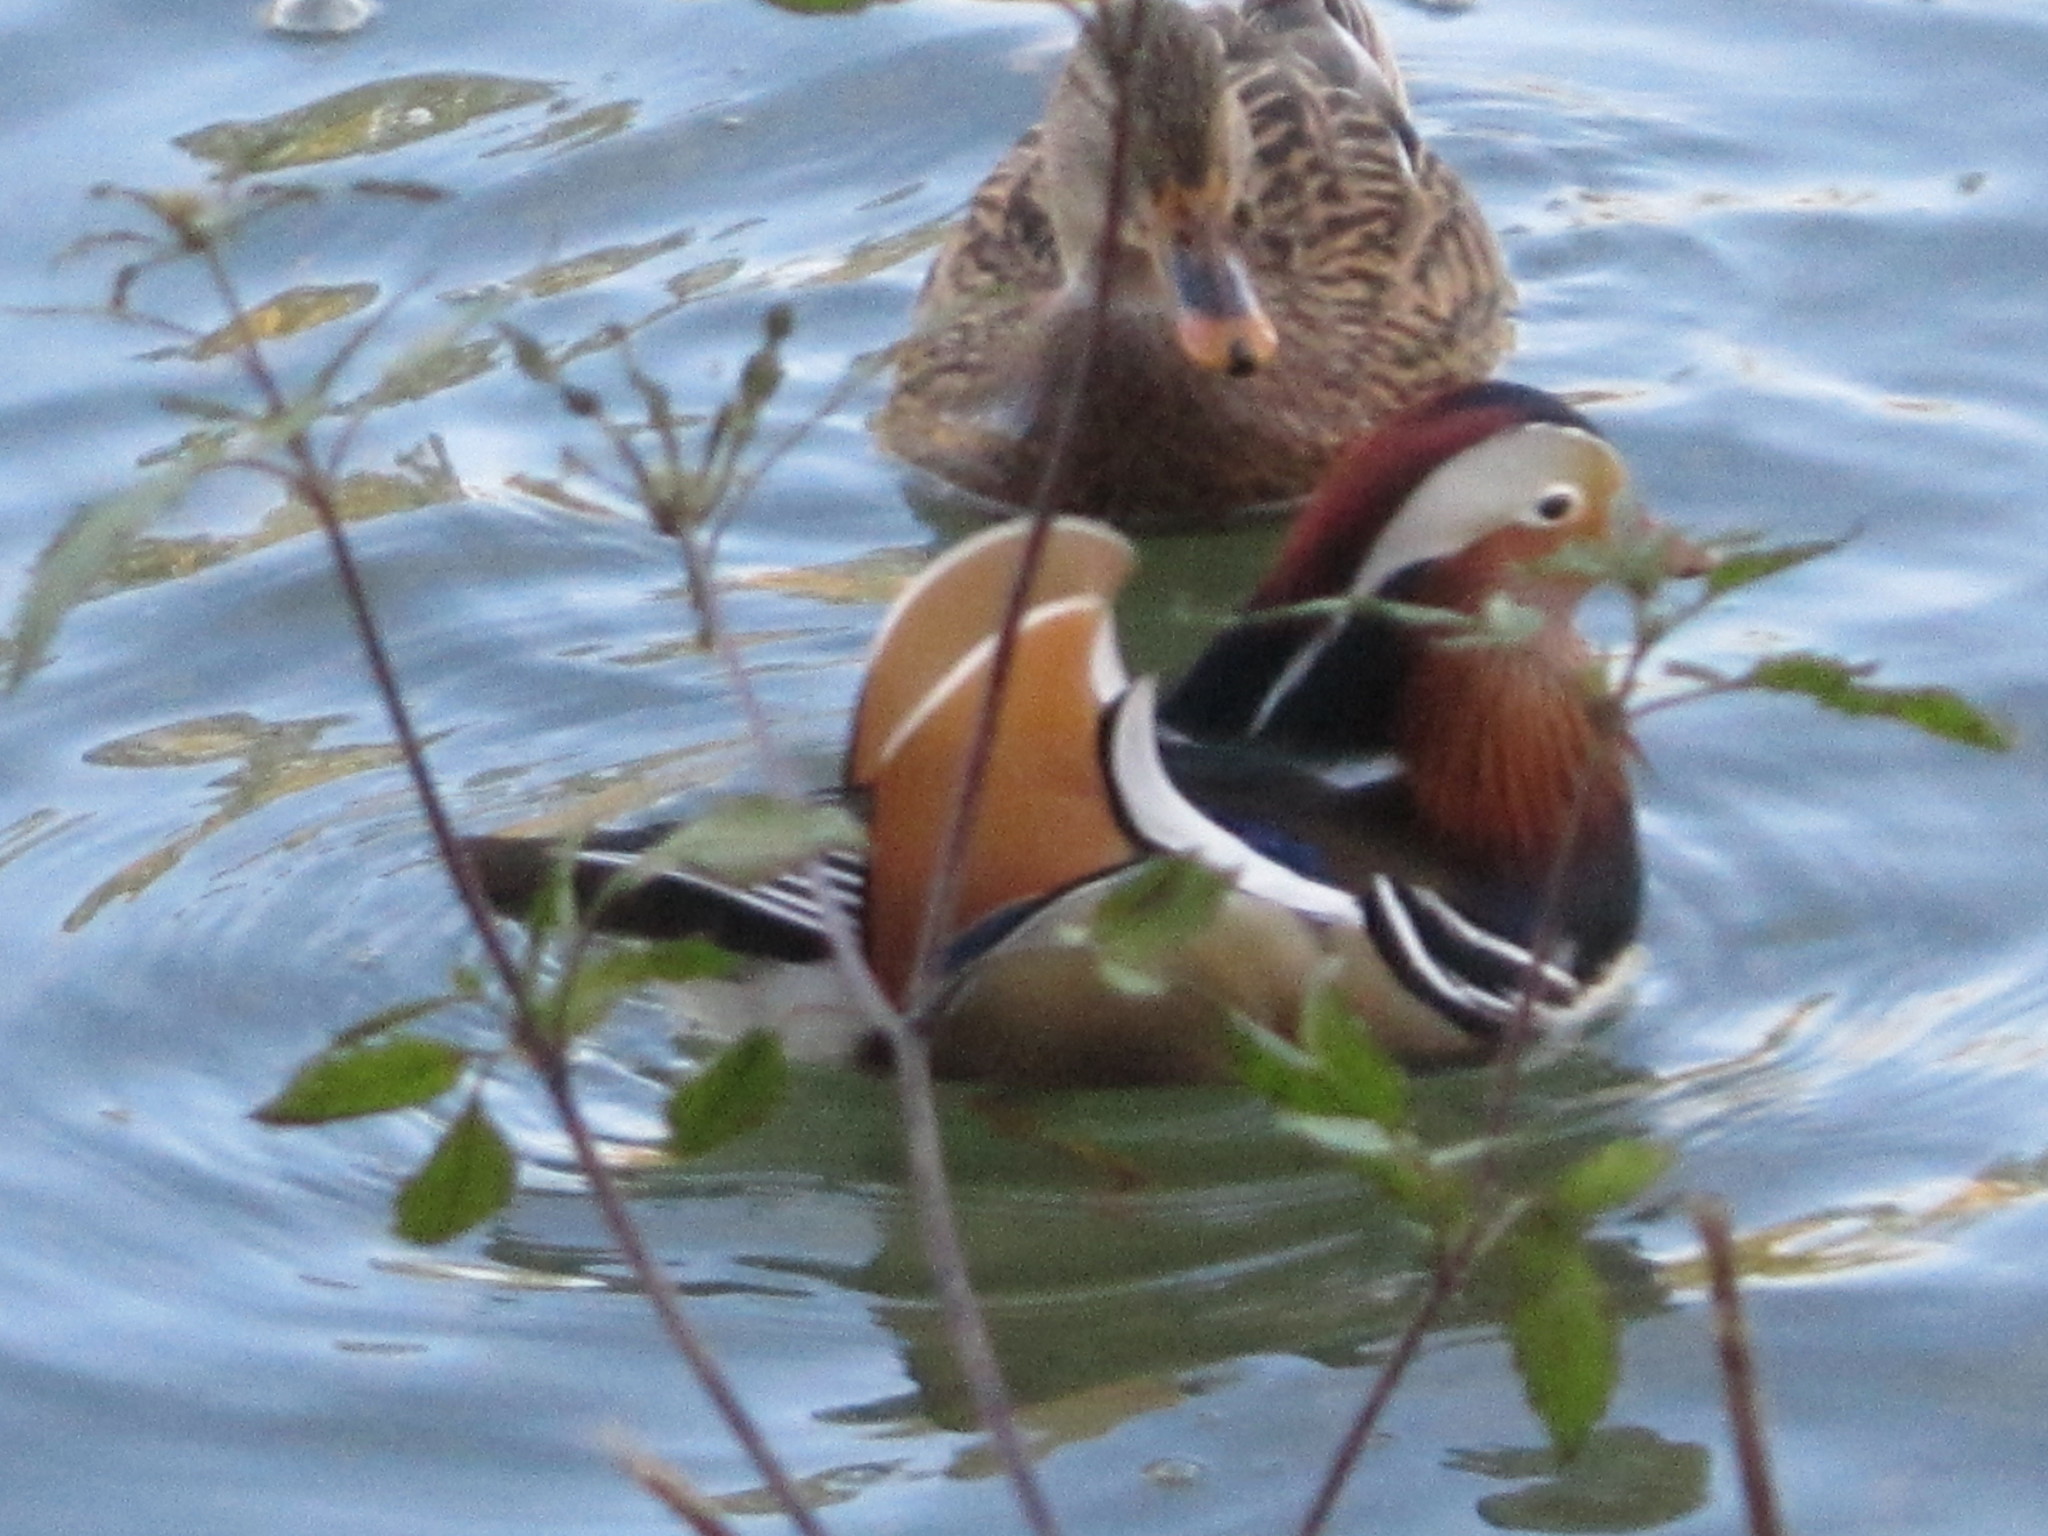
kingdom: Animalia
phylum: Chordata
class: Aves
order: Anseriformes
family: Anatidae
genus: Aix
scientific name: Aix galericulata
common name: Mandarin duck
